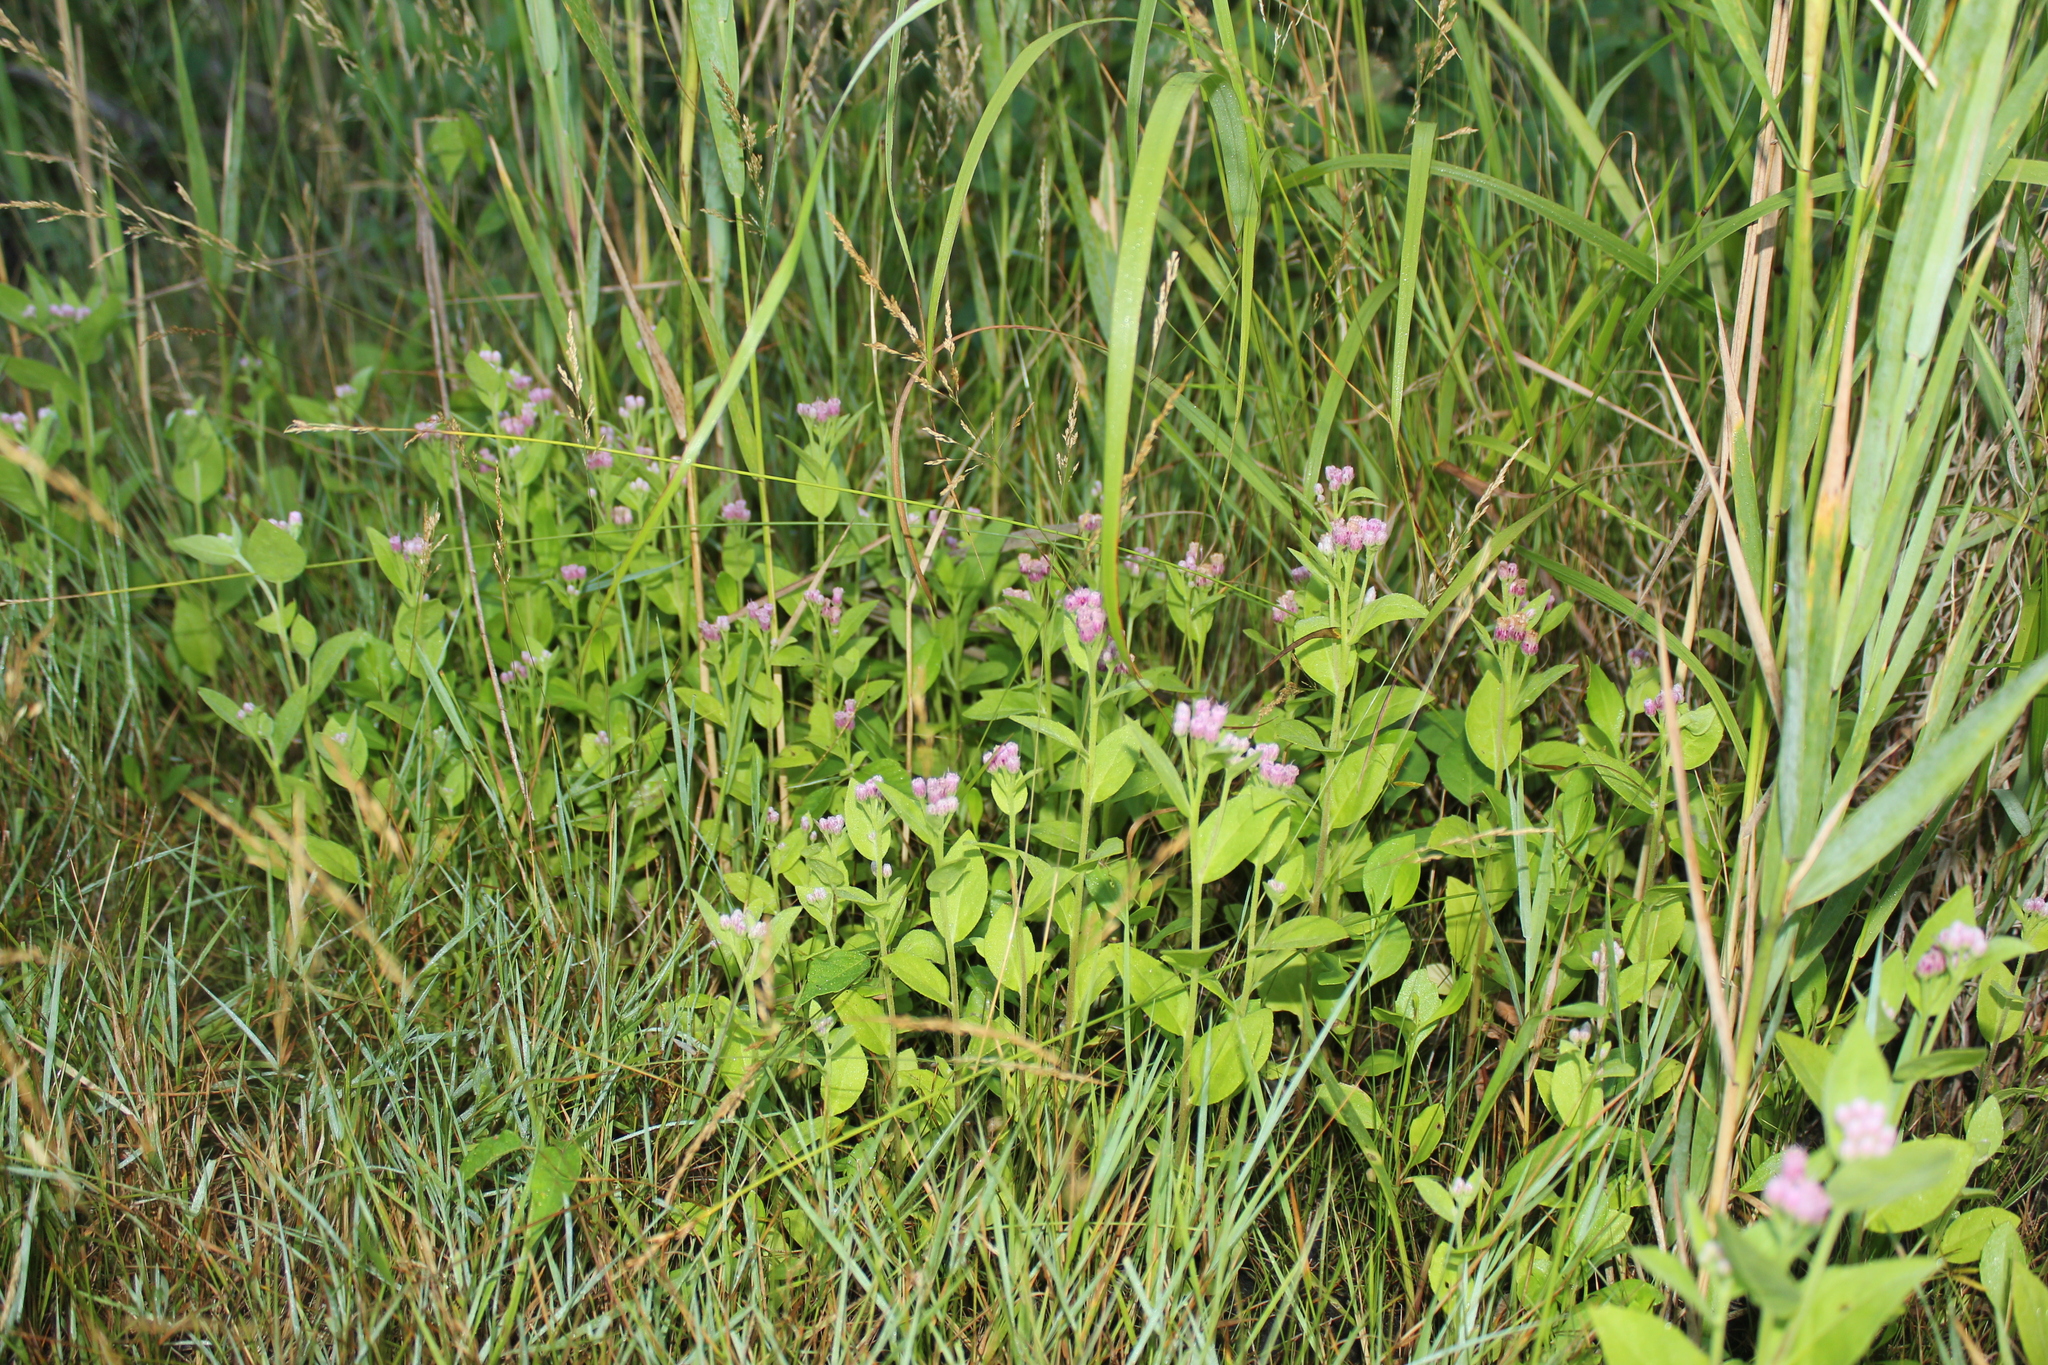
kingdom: Plantae
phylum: Tracheophyta
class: Magnoliopsida
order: Asterales
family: Asteraceae
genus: Pluchea
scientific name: Pluchea odorata
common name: Saltmarsh fleabane
